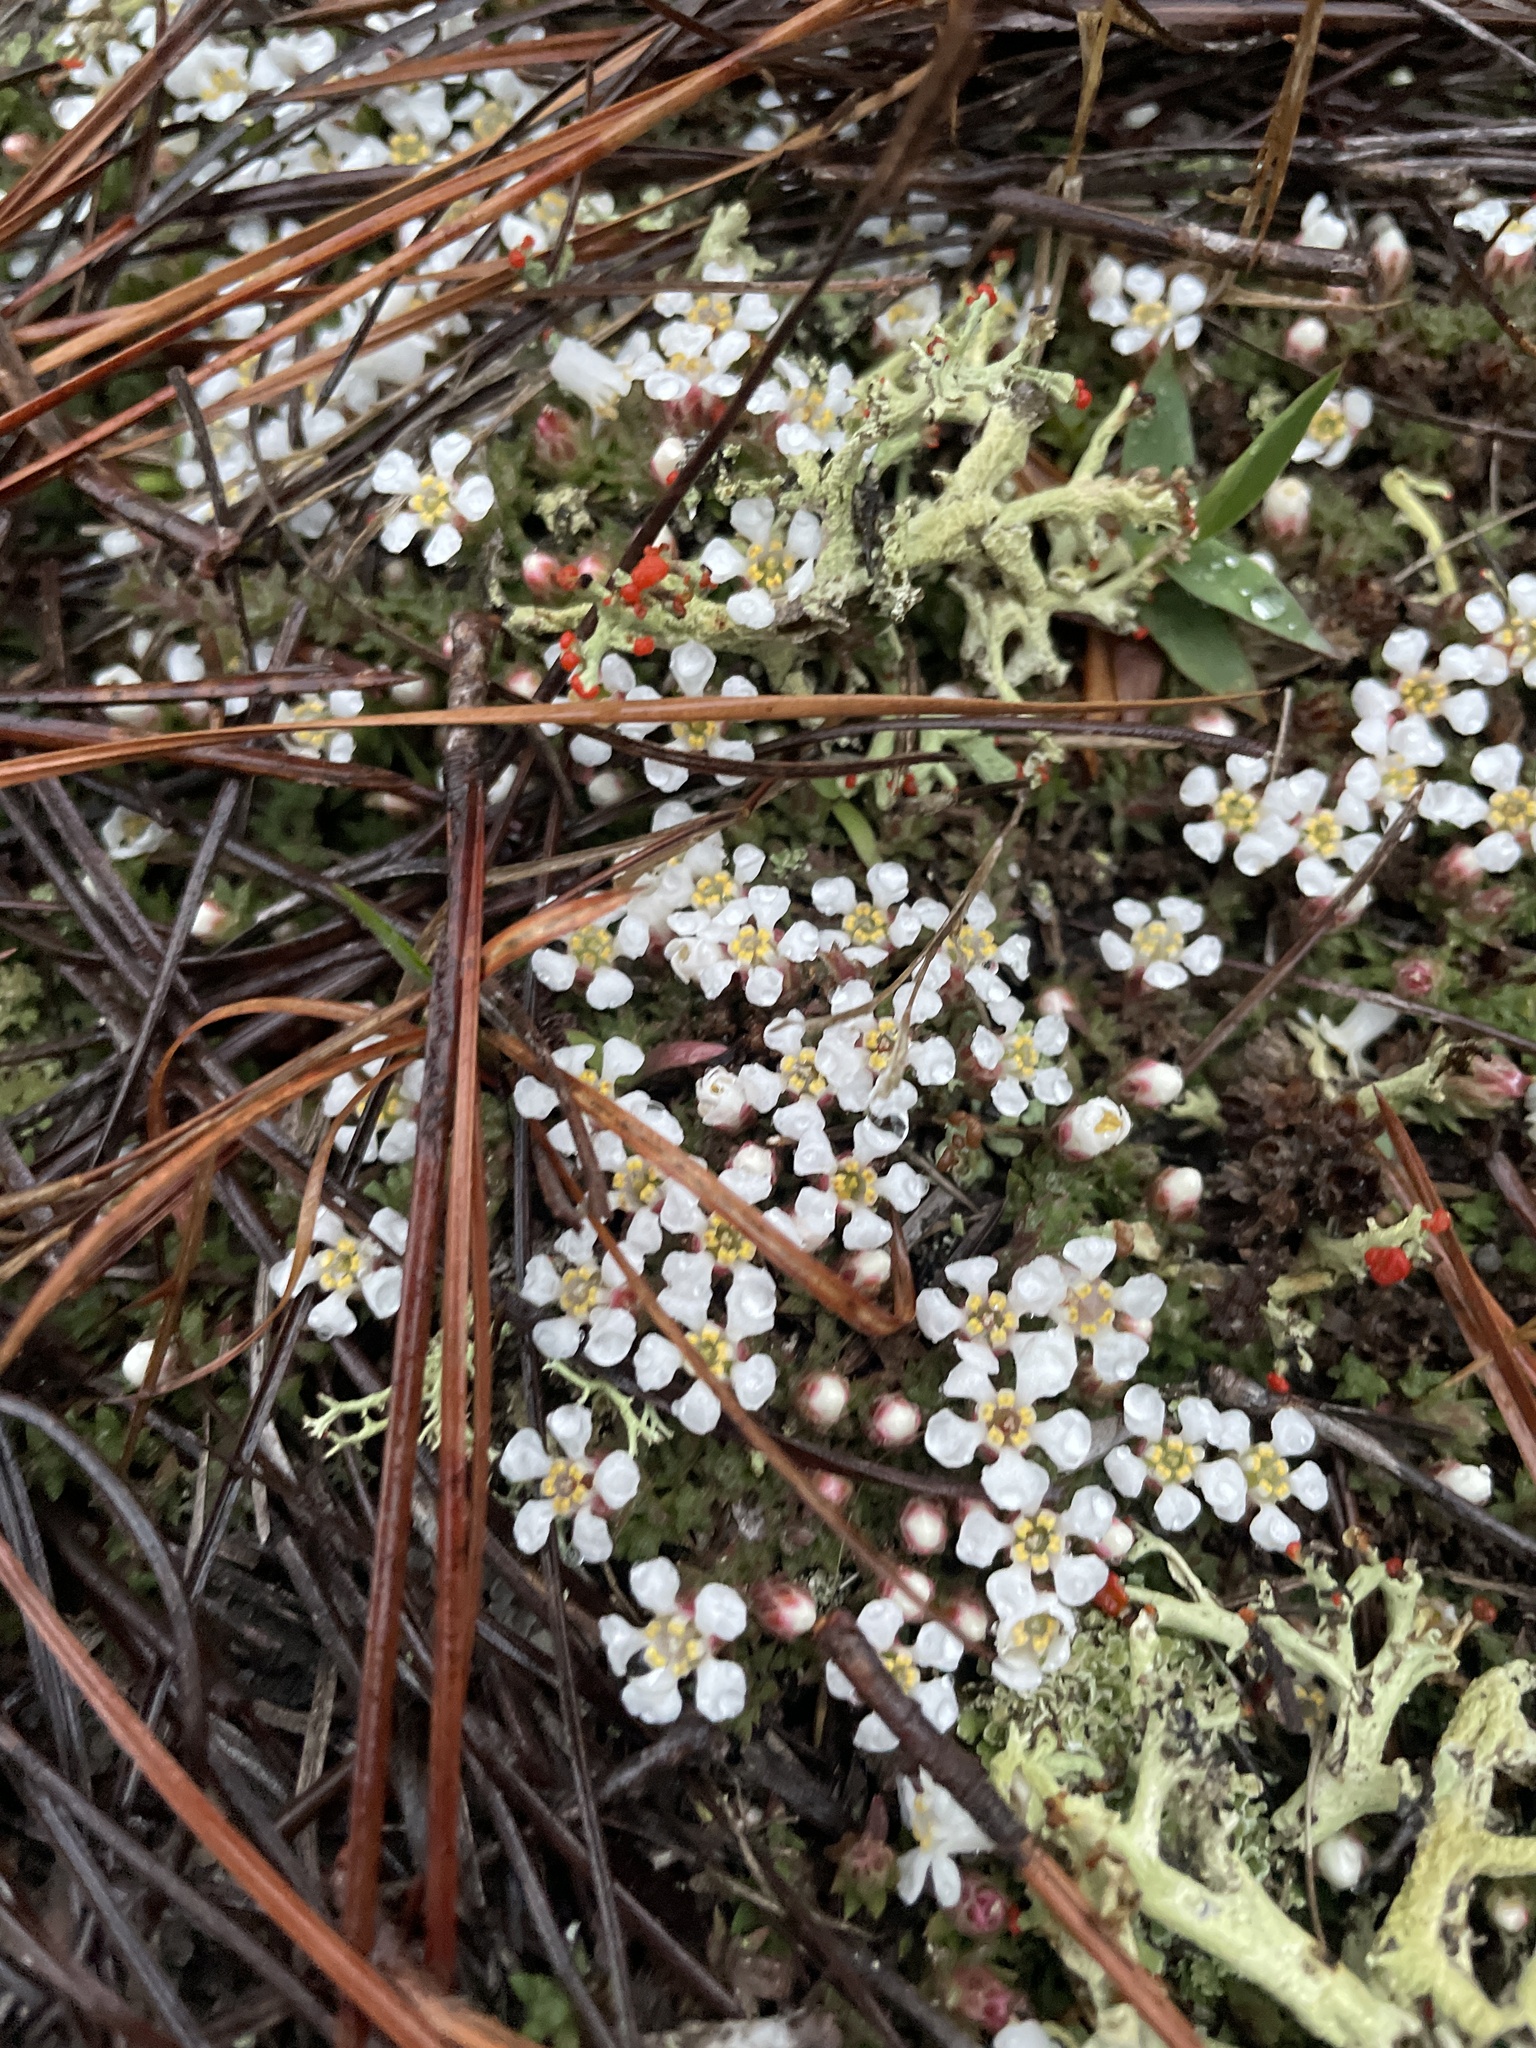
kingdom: Plantae
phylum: Tracheophyta
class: Magnoliopsida
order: Ericales
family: Diapensiaceae
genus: Pyxidanthera
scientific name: Pyxidanthera brevifolia
